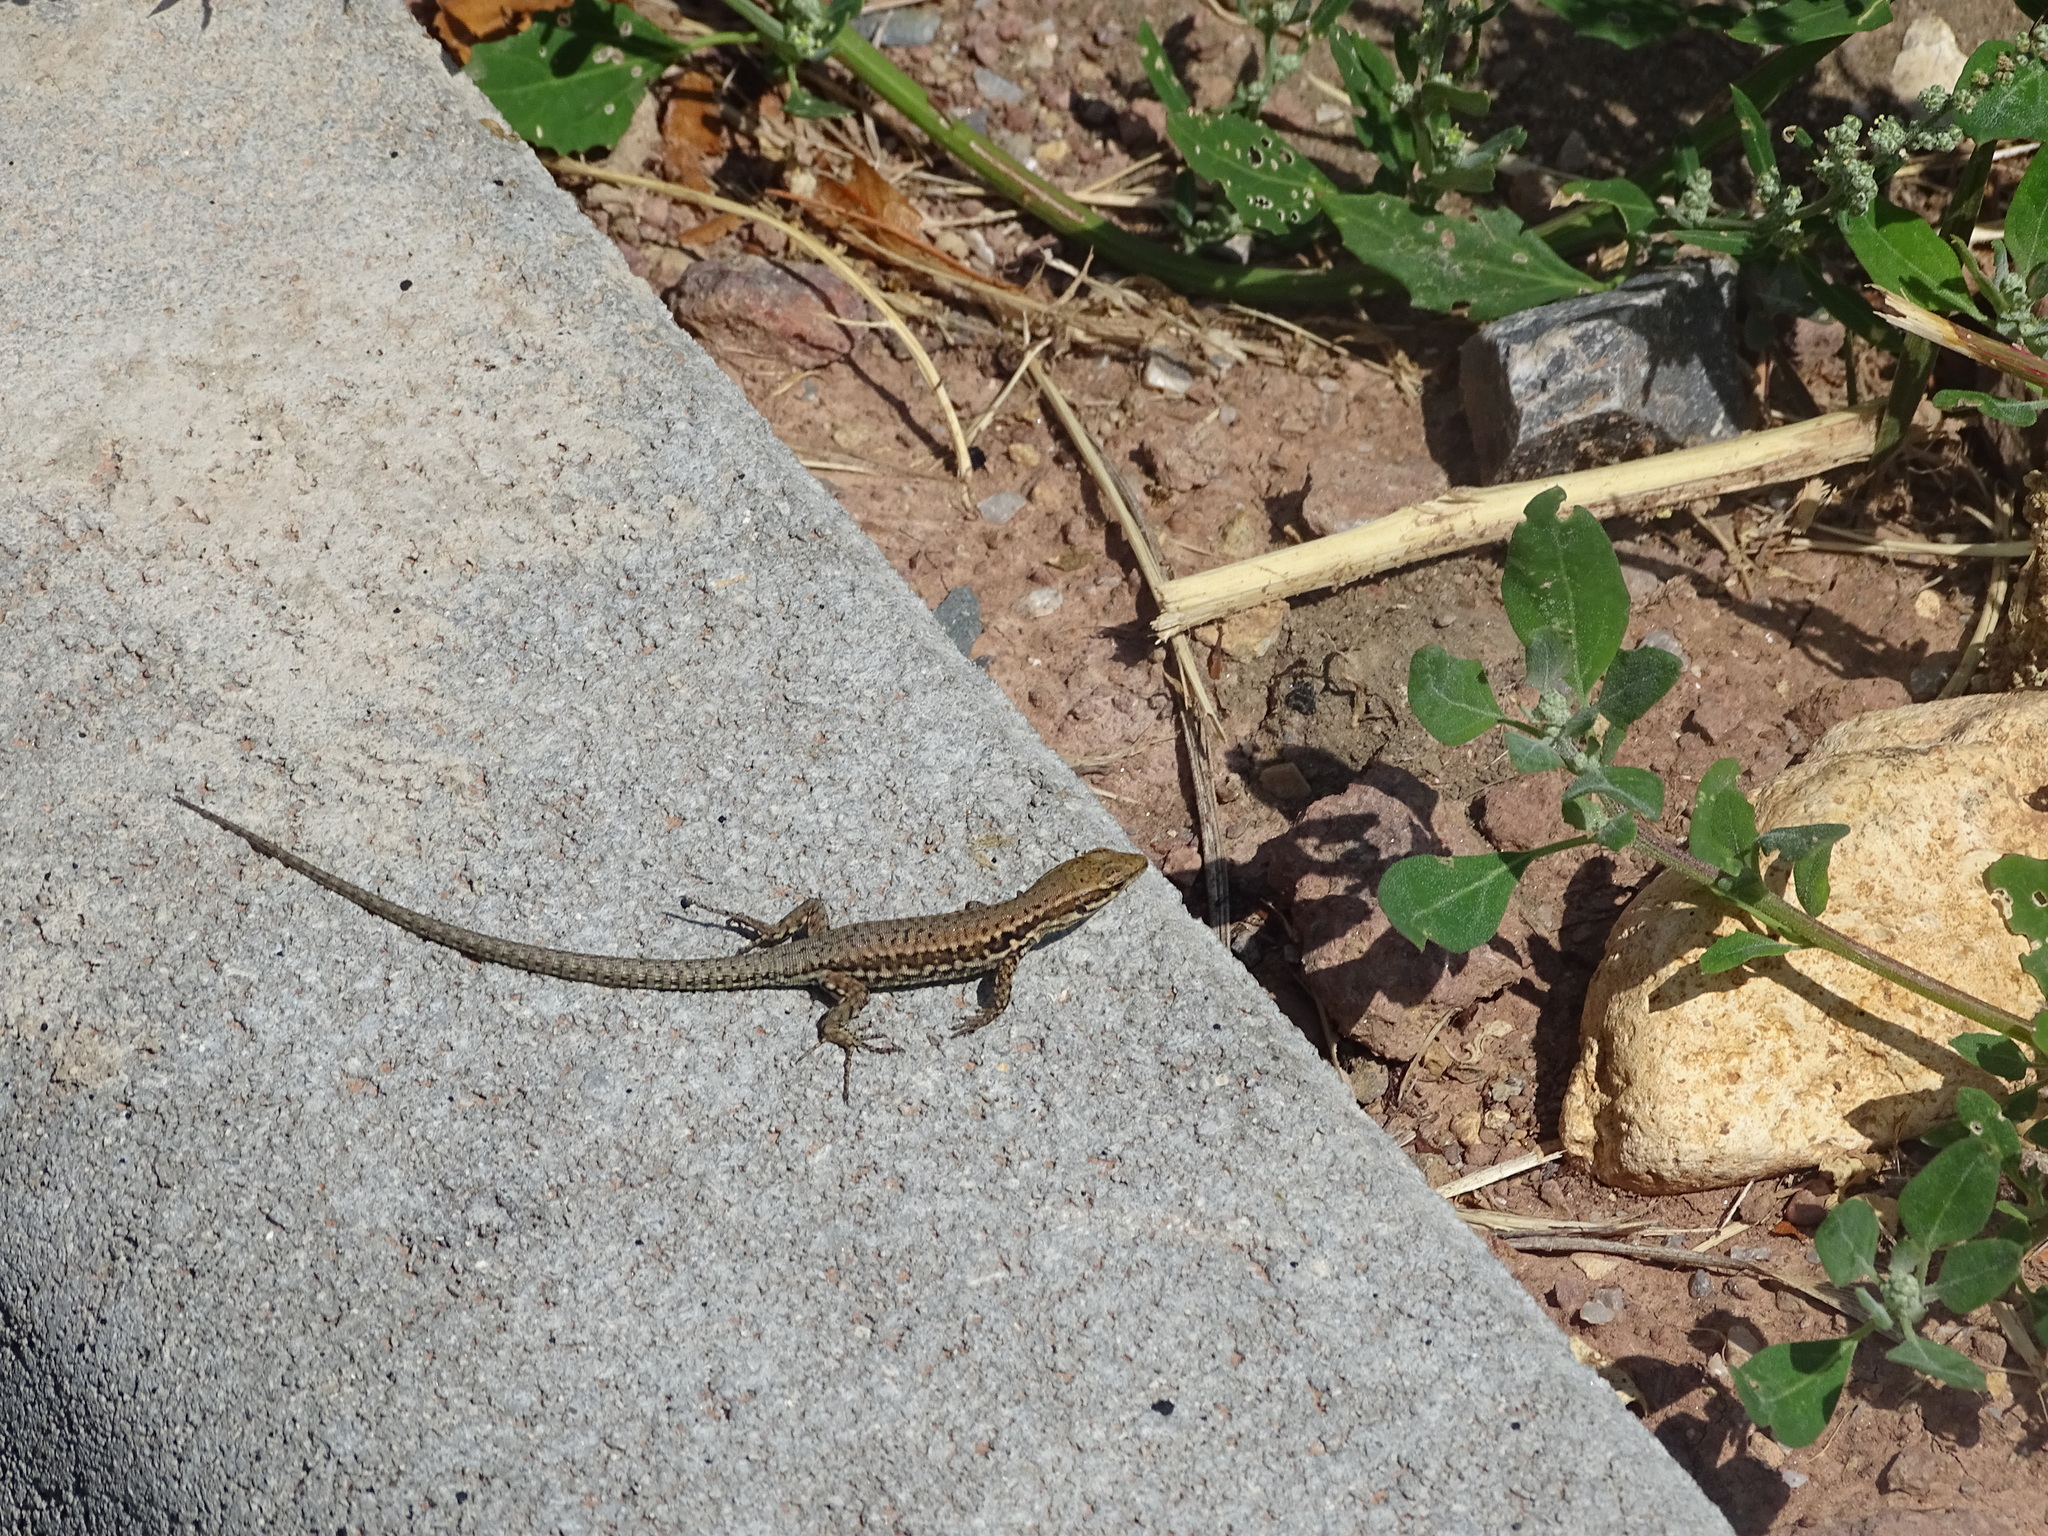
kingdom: Animalia
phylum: Chordata
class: Squamata
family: Lacertidae
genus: Podarcis
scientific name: Podarcis muralis
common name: Common wall lizard
